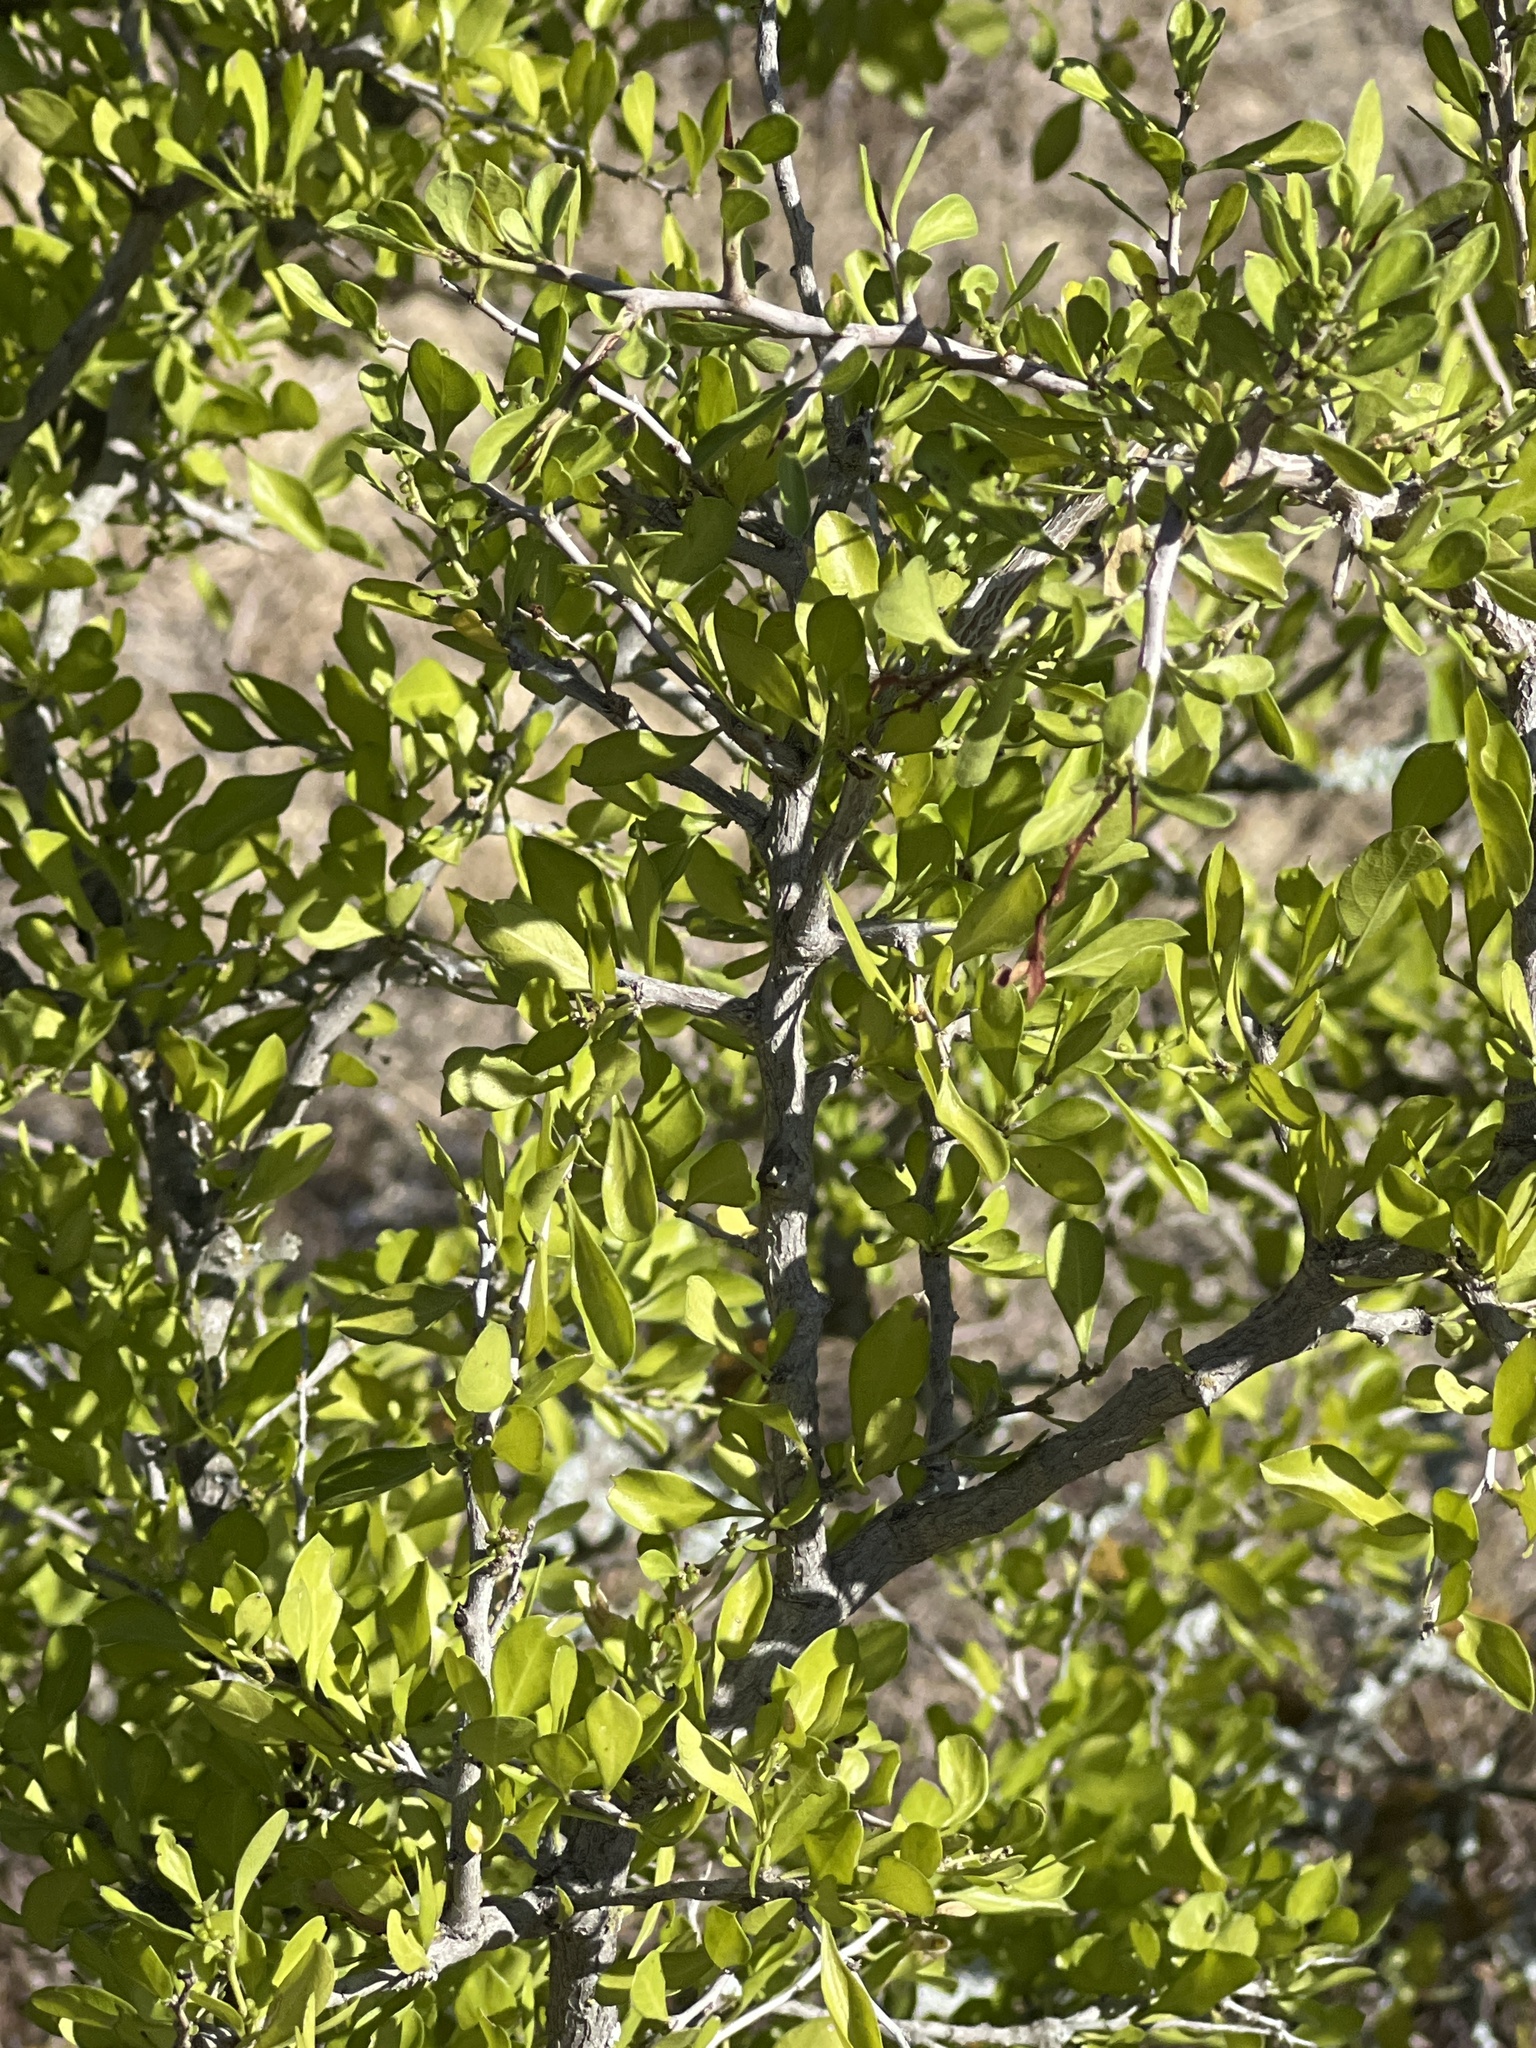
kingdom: Plantae
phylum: Tracheophyta
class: Magnoliopsida
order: Rosales
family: Rhamnaceae
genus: Condalia
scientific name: Condalia hookeri
